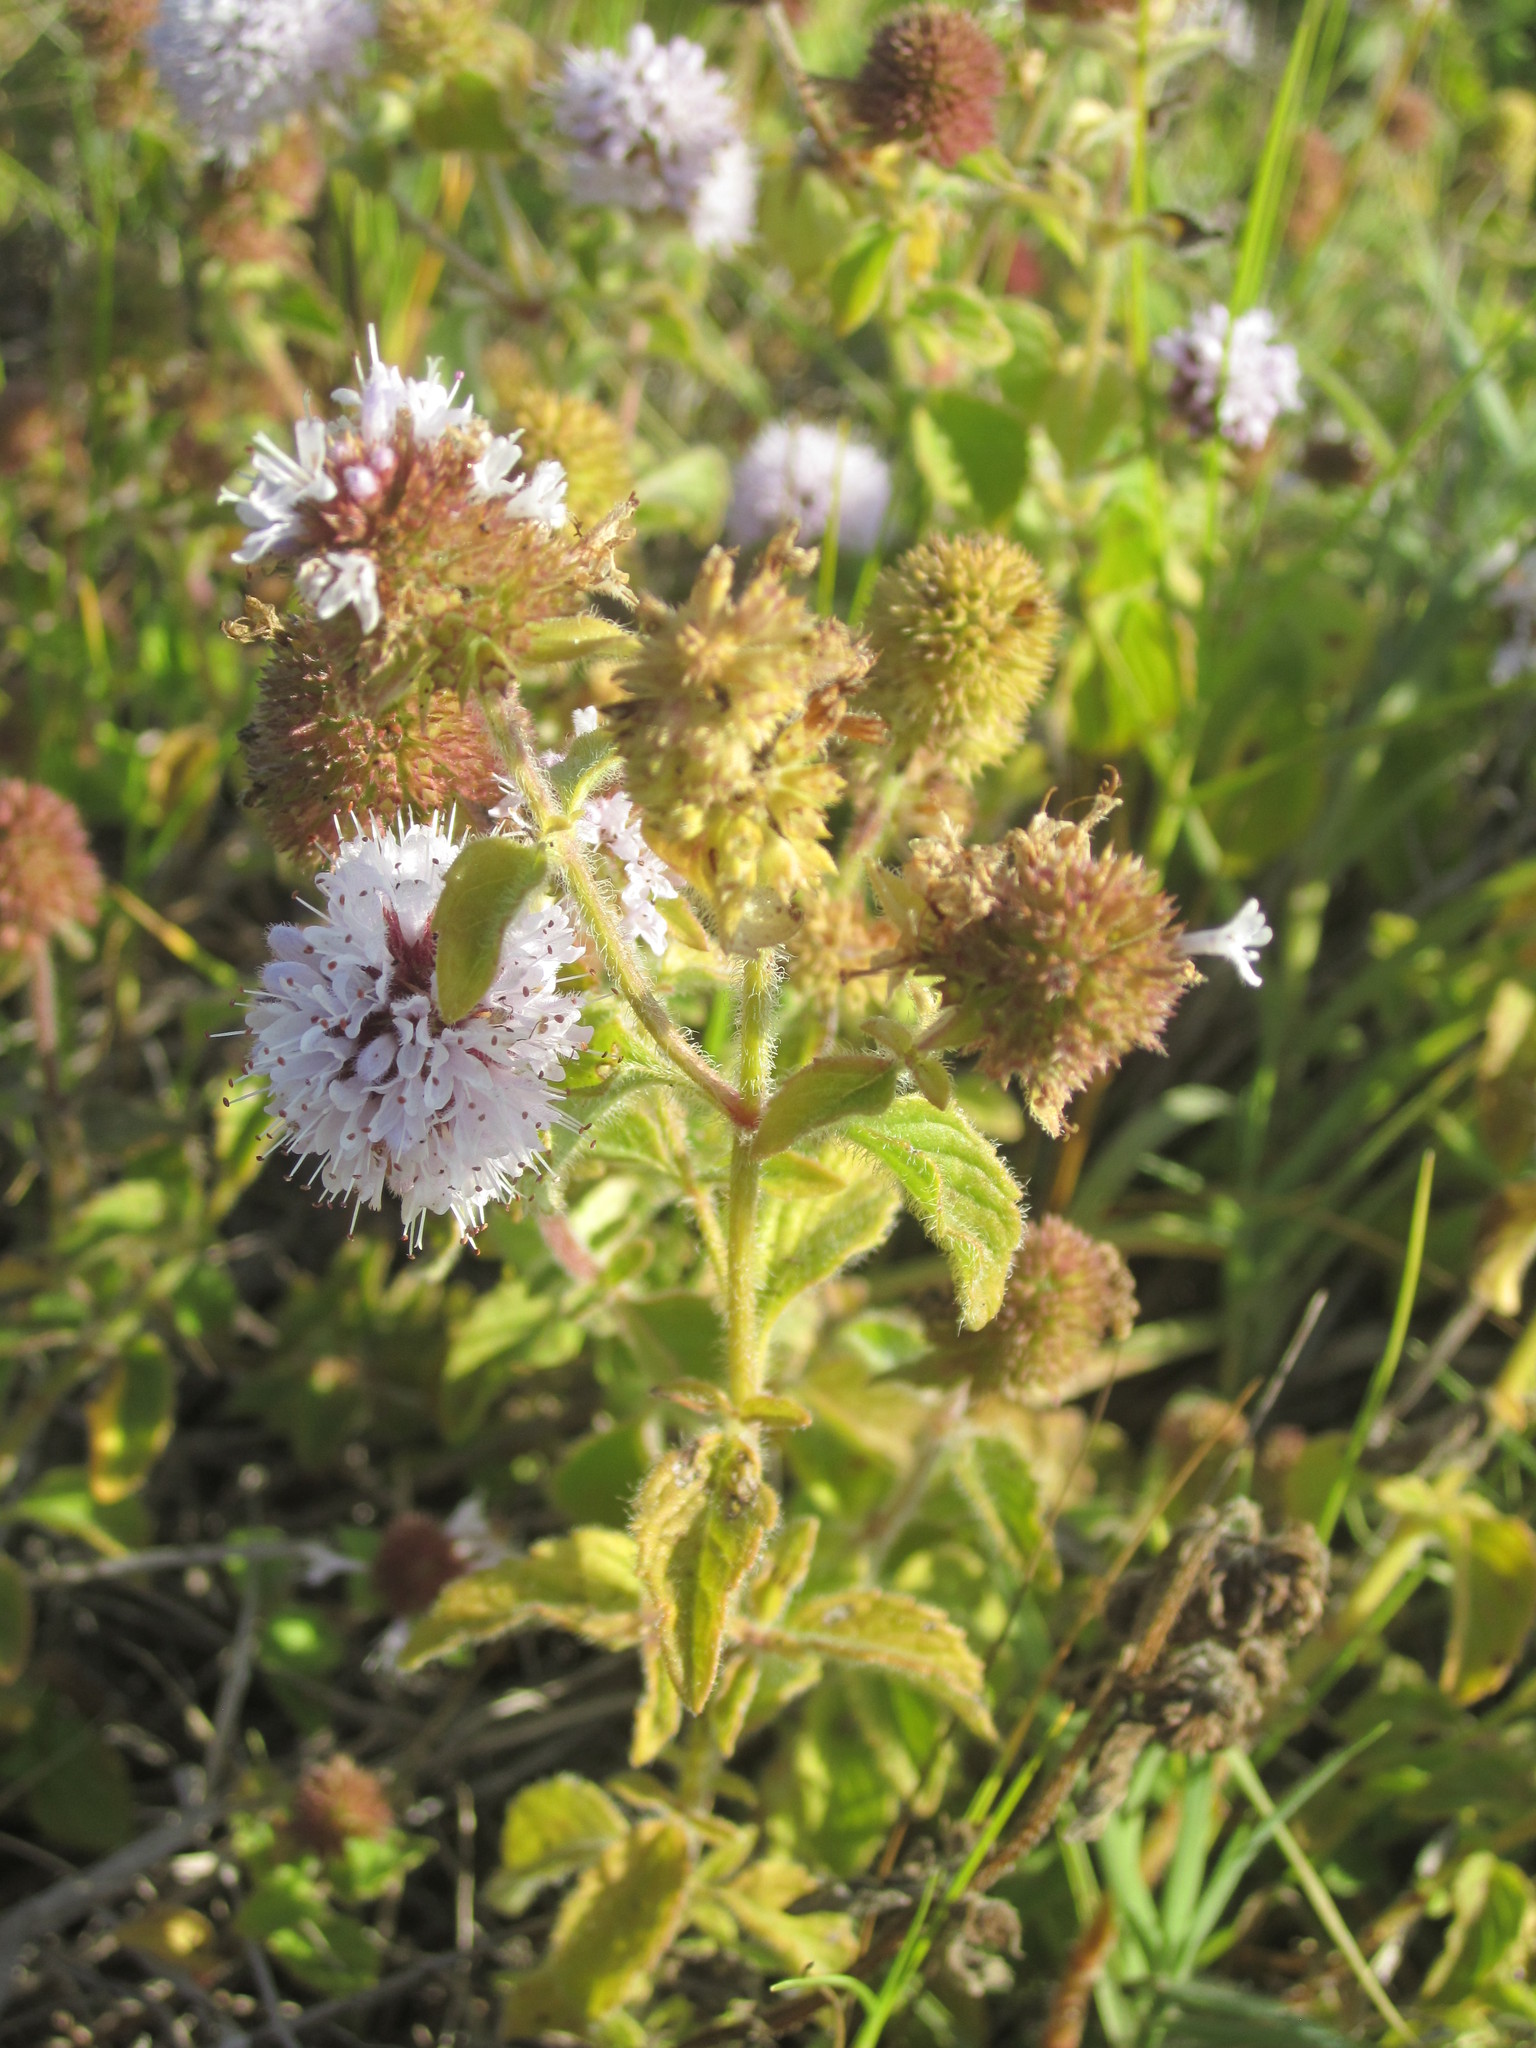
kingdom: Plantae
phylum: Tracheophyta
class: Magnoliopsida
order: Lamiales
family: Lamiaceae
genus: Mentha
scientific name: Mentha aquatica
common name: Water mint
